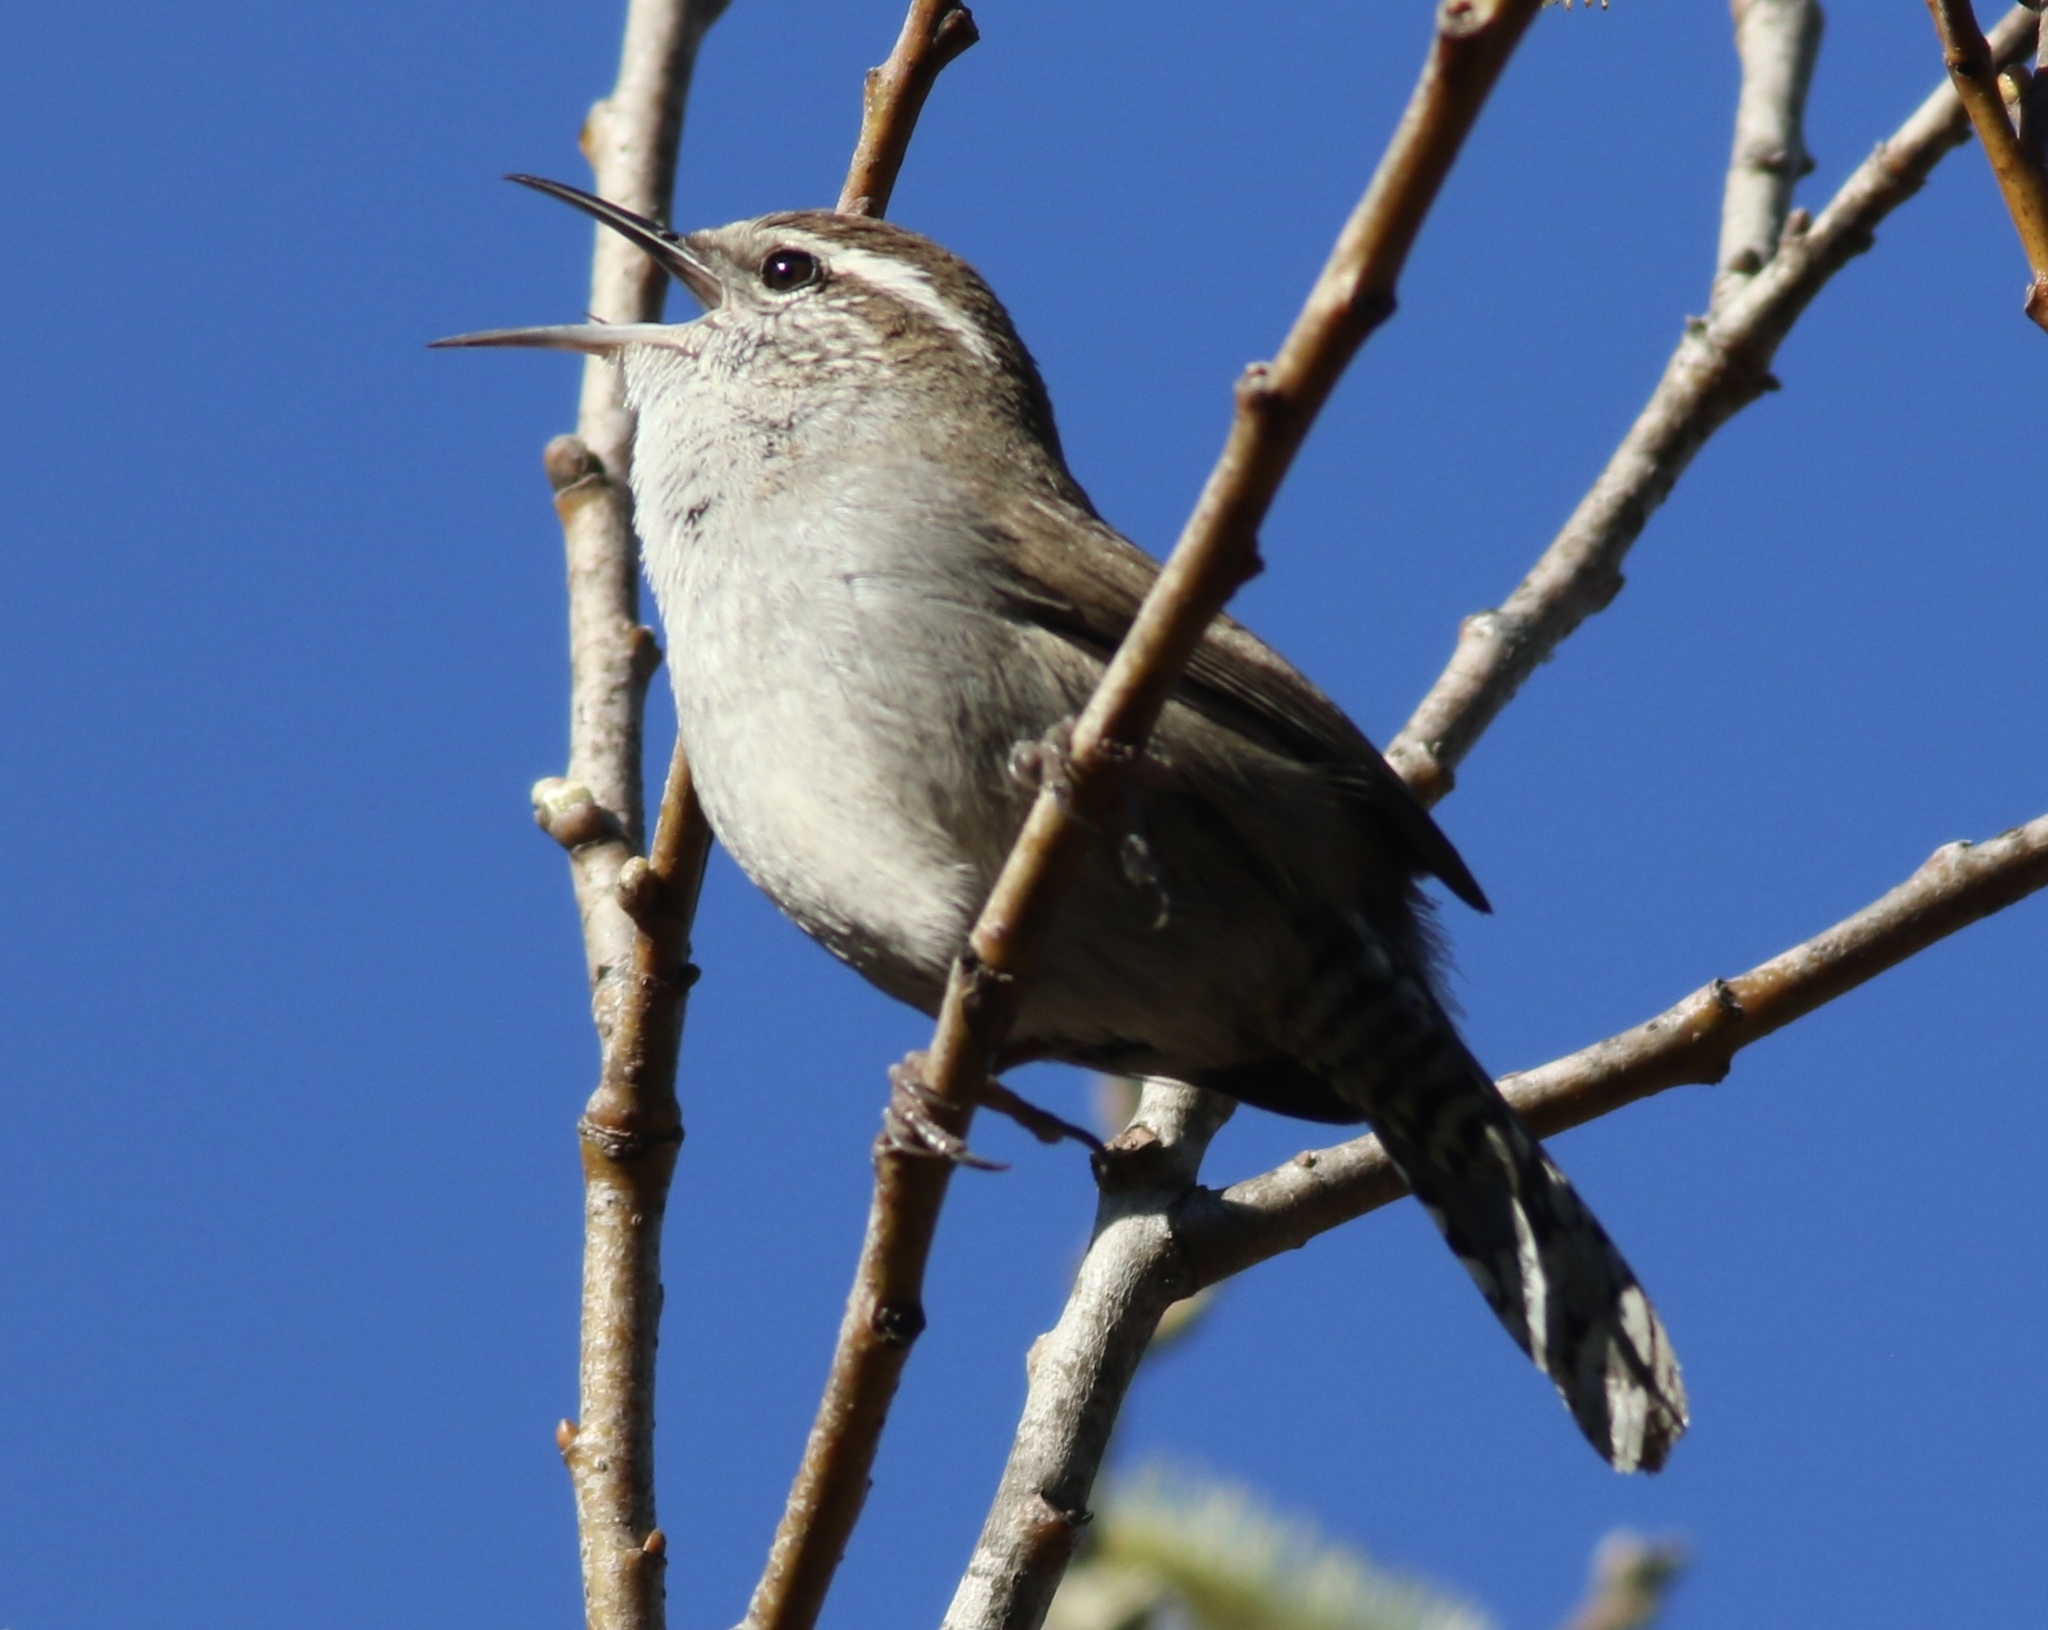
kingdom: Animalia
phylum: Chordata
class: Aves
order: Passeriformes
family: Troglodytidae
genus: Thryomanes
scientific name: Thryomanes bewickii
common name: Bewick's wren
